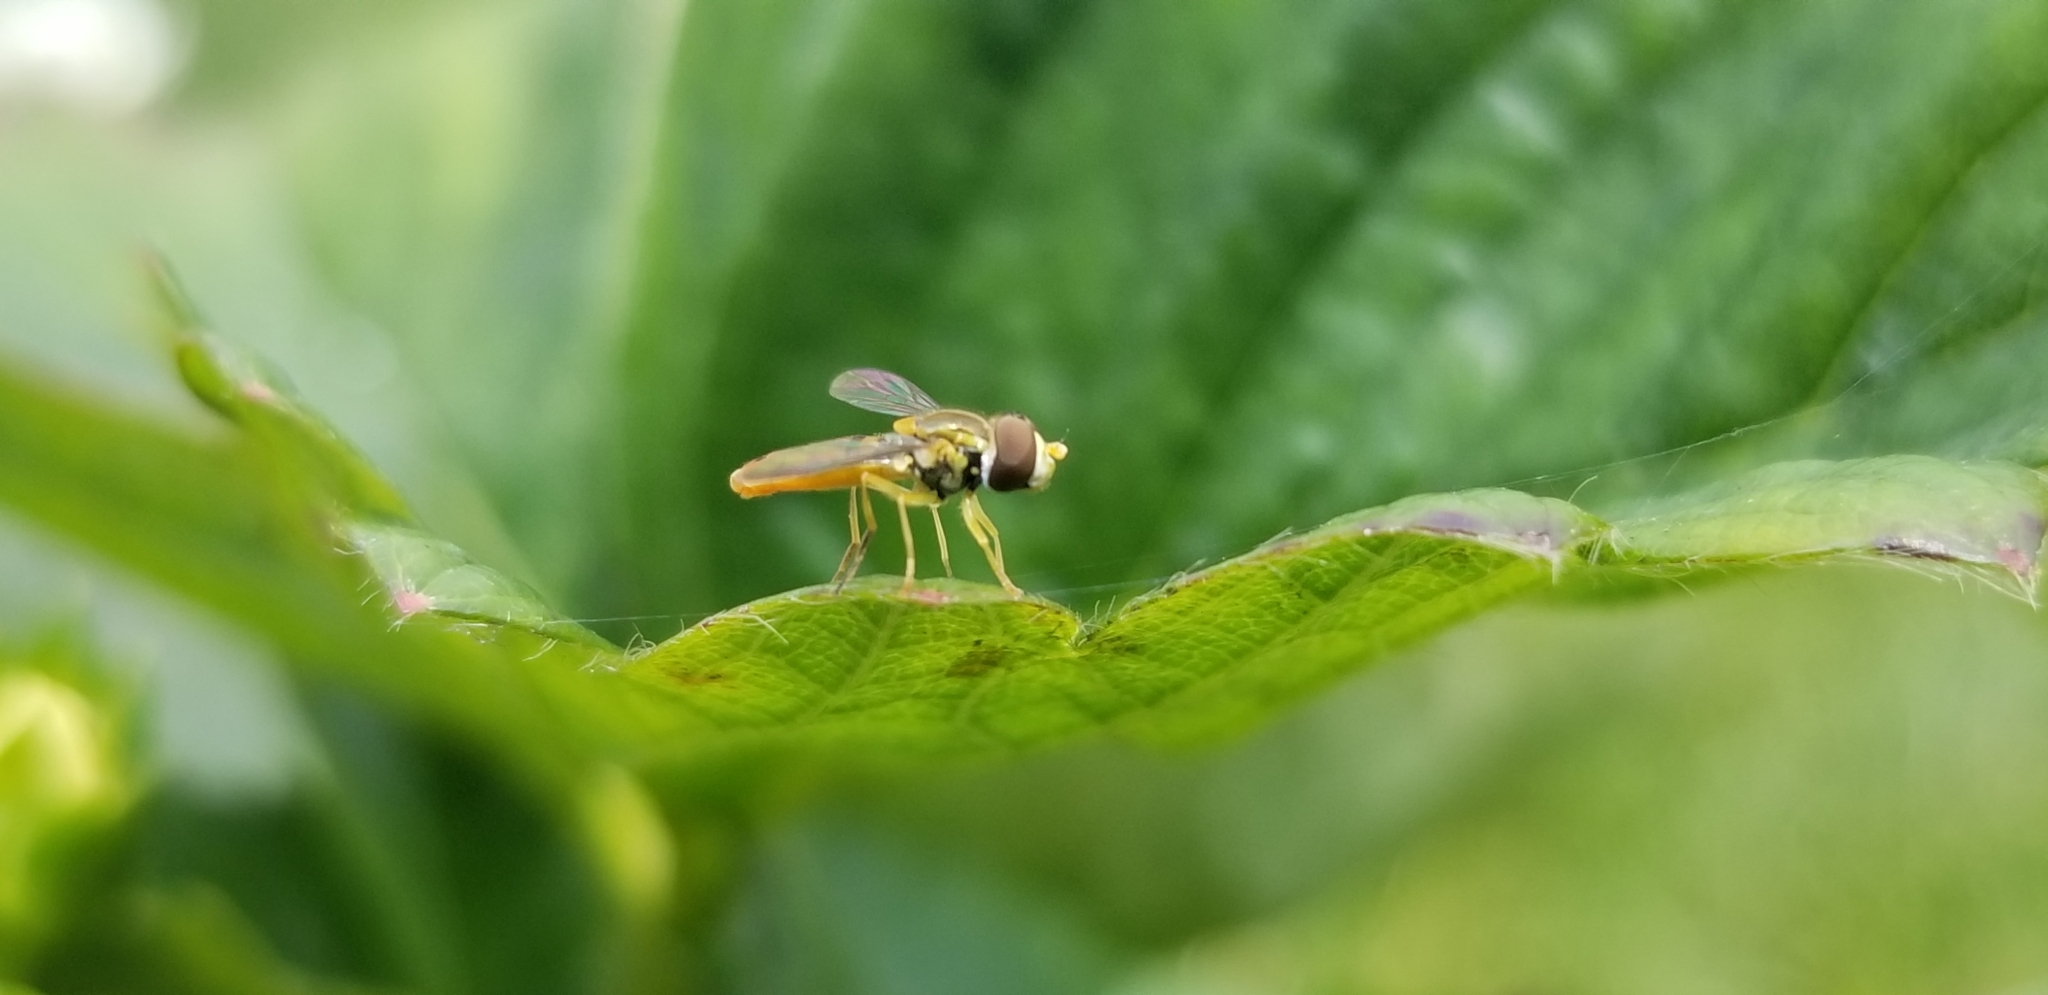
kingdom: Animalia
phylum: Arthropoda
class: Insecta
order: Diptera
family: Syrphidae
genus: Toxomerus
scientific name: Toxomerus marginatus
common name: Syrphid fly
